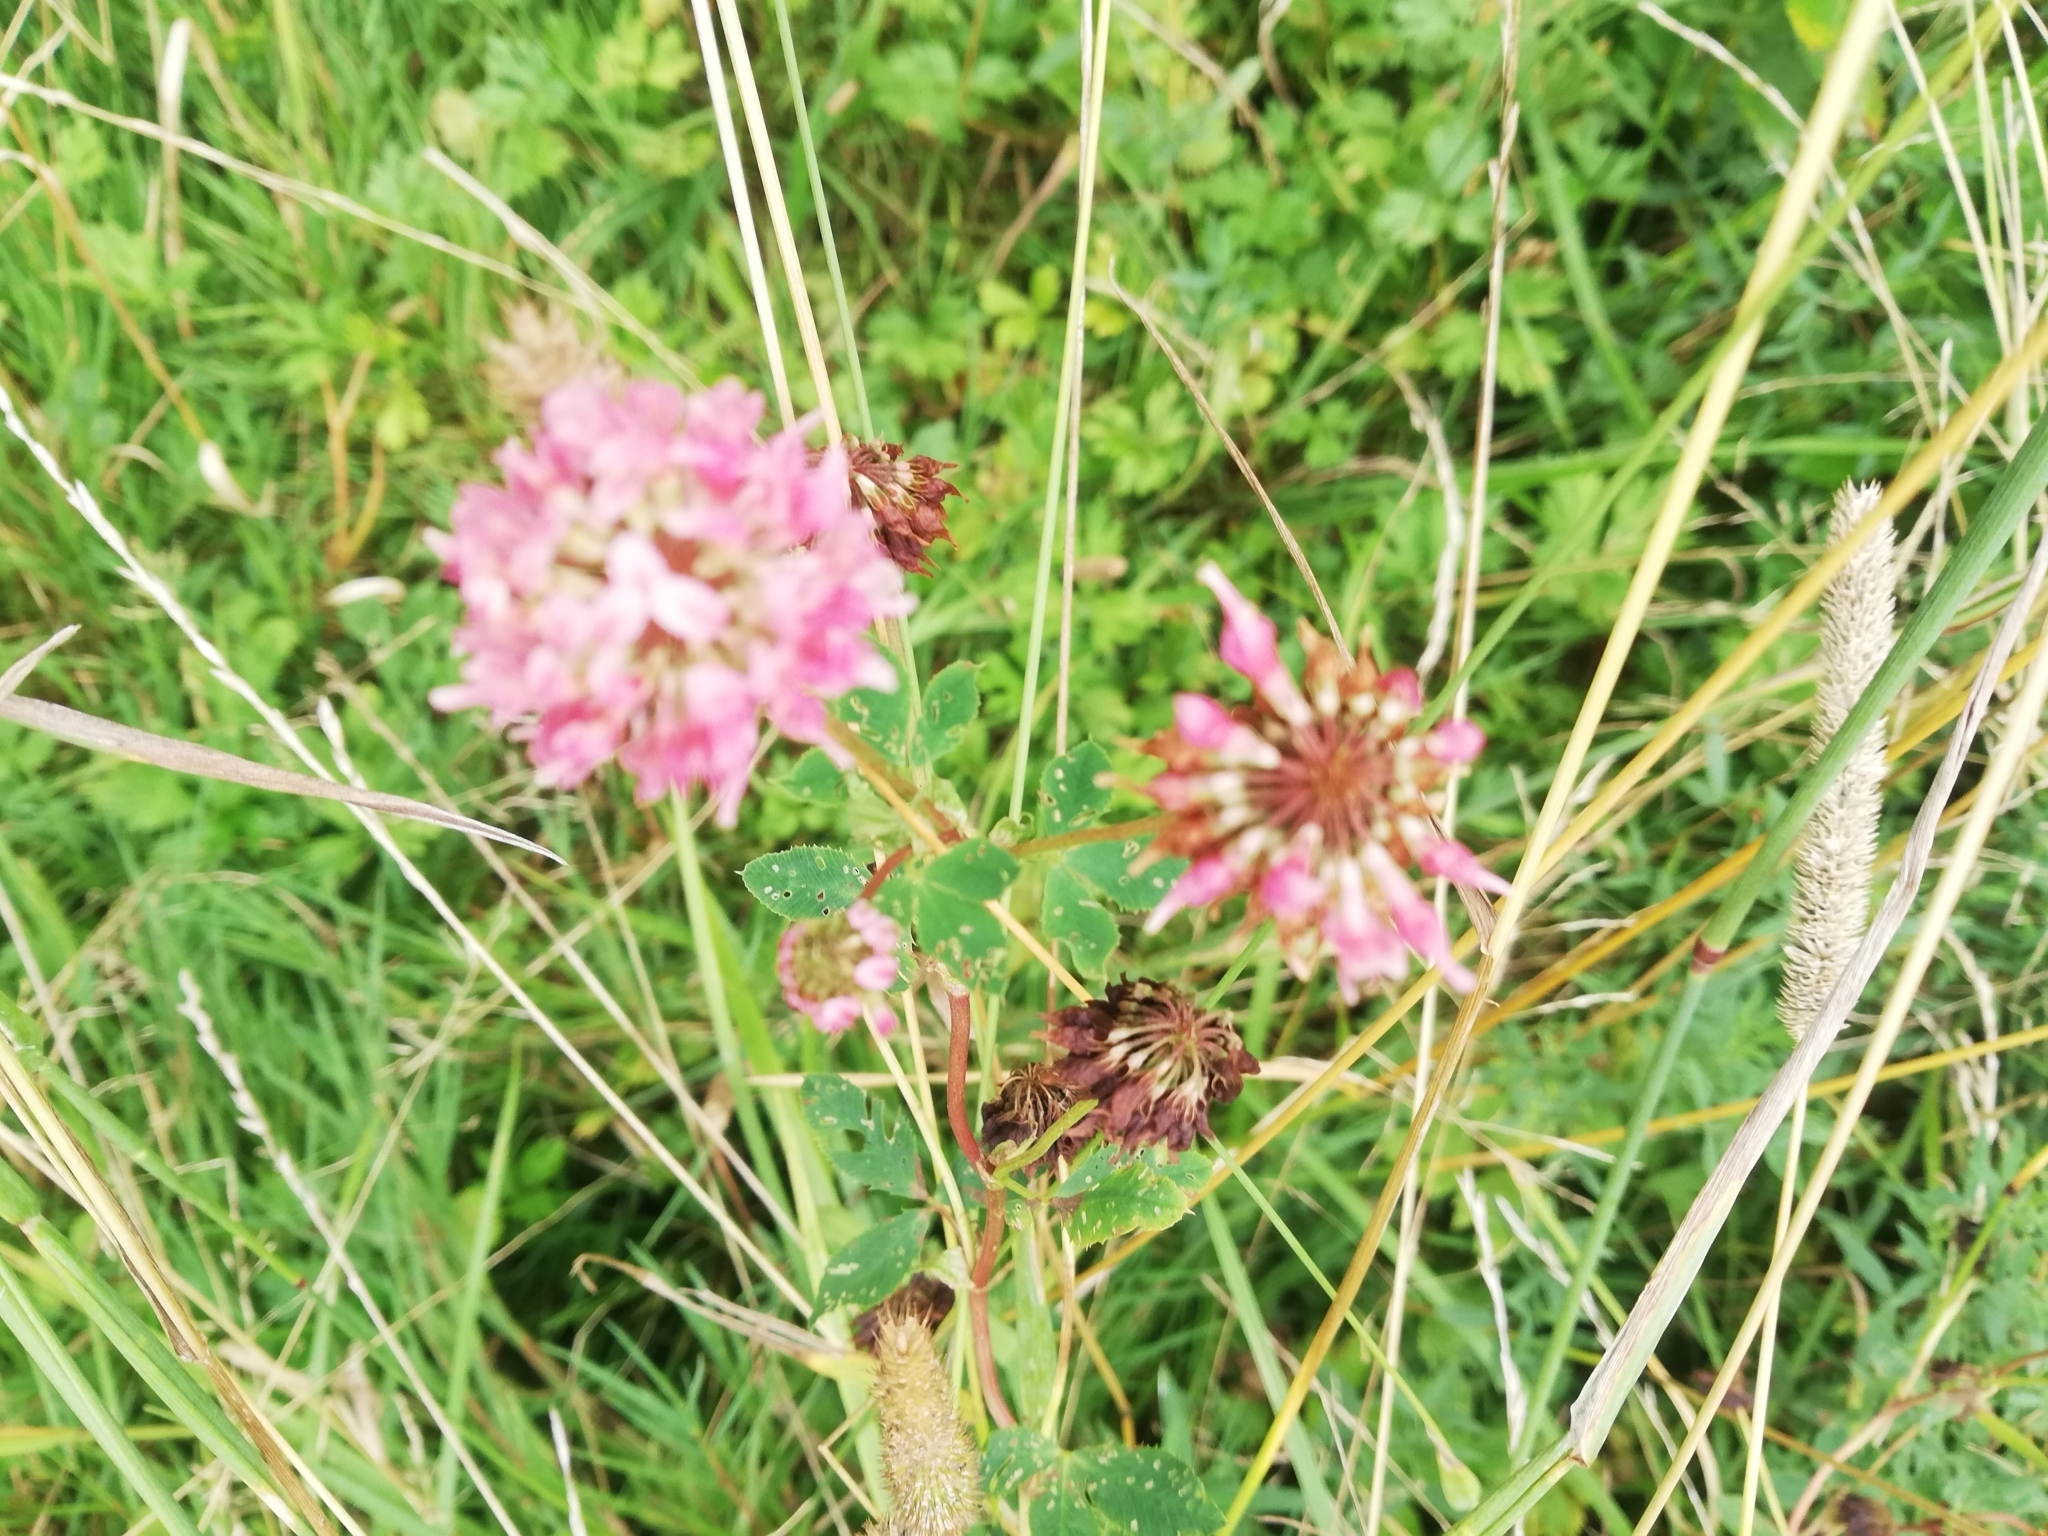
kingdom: Plantae
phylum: Tracheophyta
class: Magnoliopsida
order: Fabales
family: Fabaceae
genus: Trifolium
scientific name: Trifolium hybridum
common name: Alsike clover
